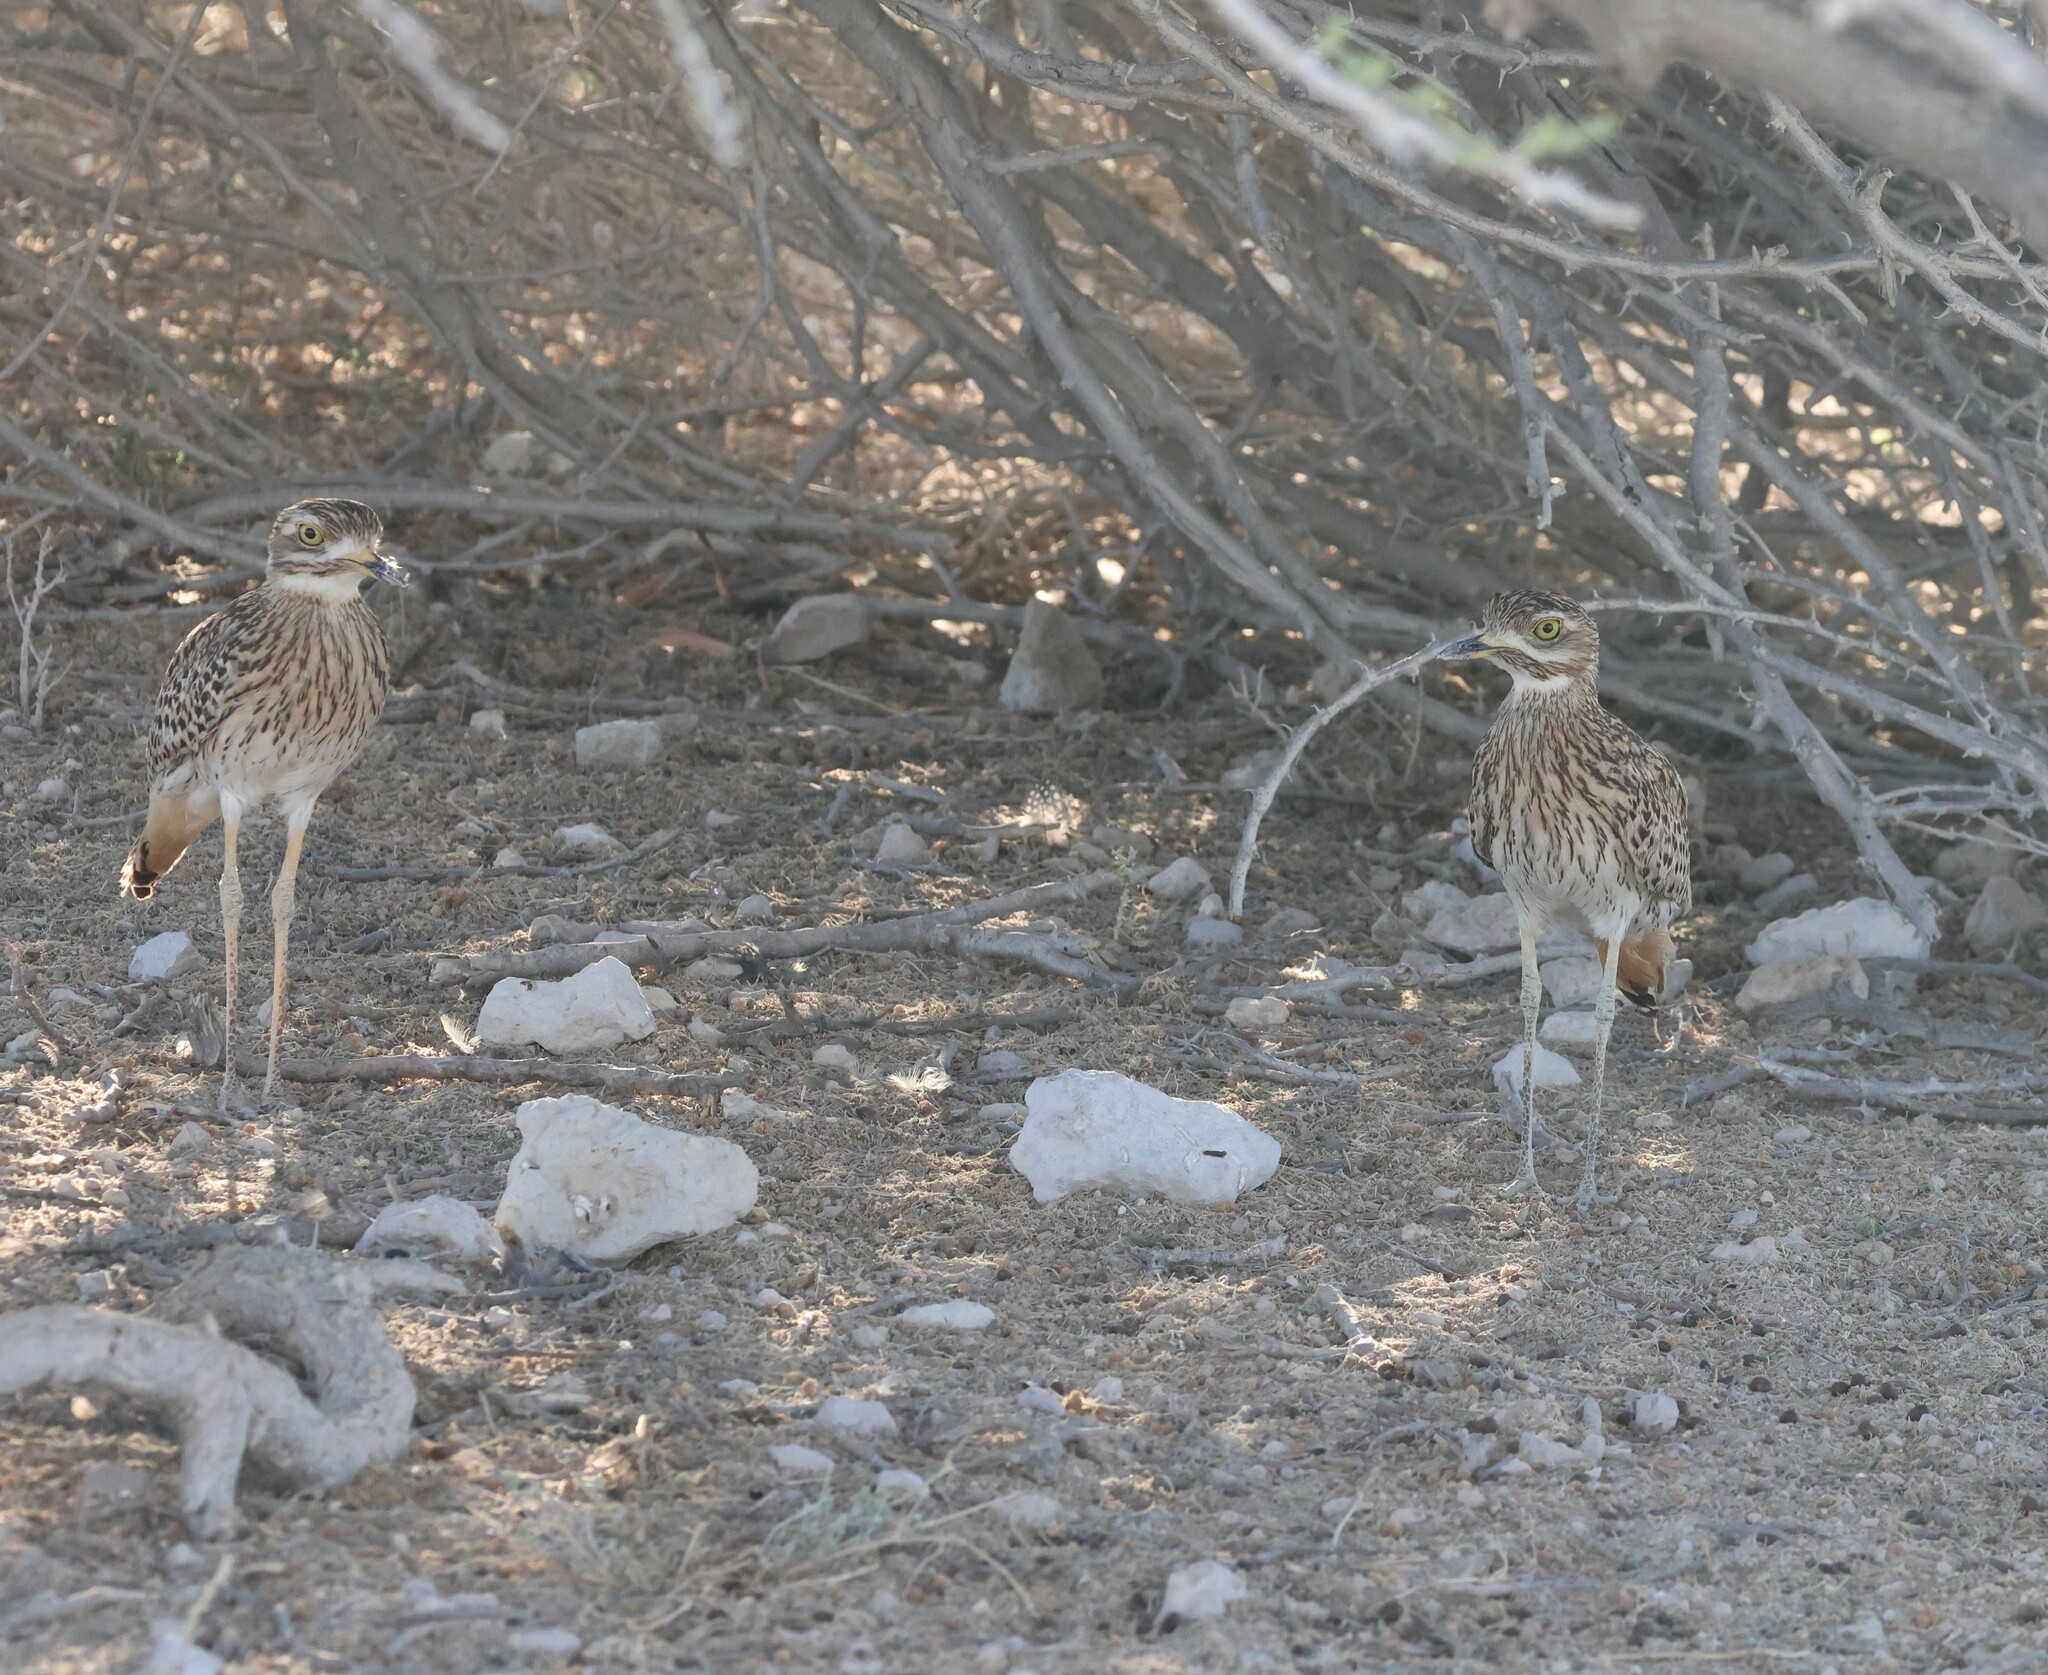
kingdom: Animalia
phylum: Chordata
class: Aves
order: Charadriiformes
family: Burhinidae
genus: Burhinus
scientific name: Burhinus capensis
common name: Spotted thick-knee
